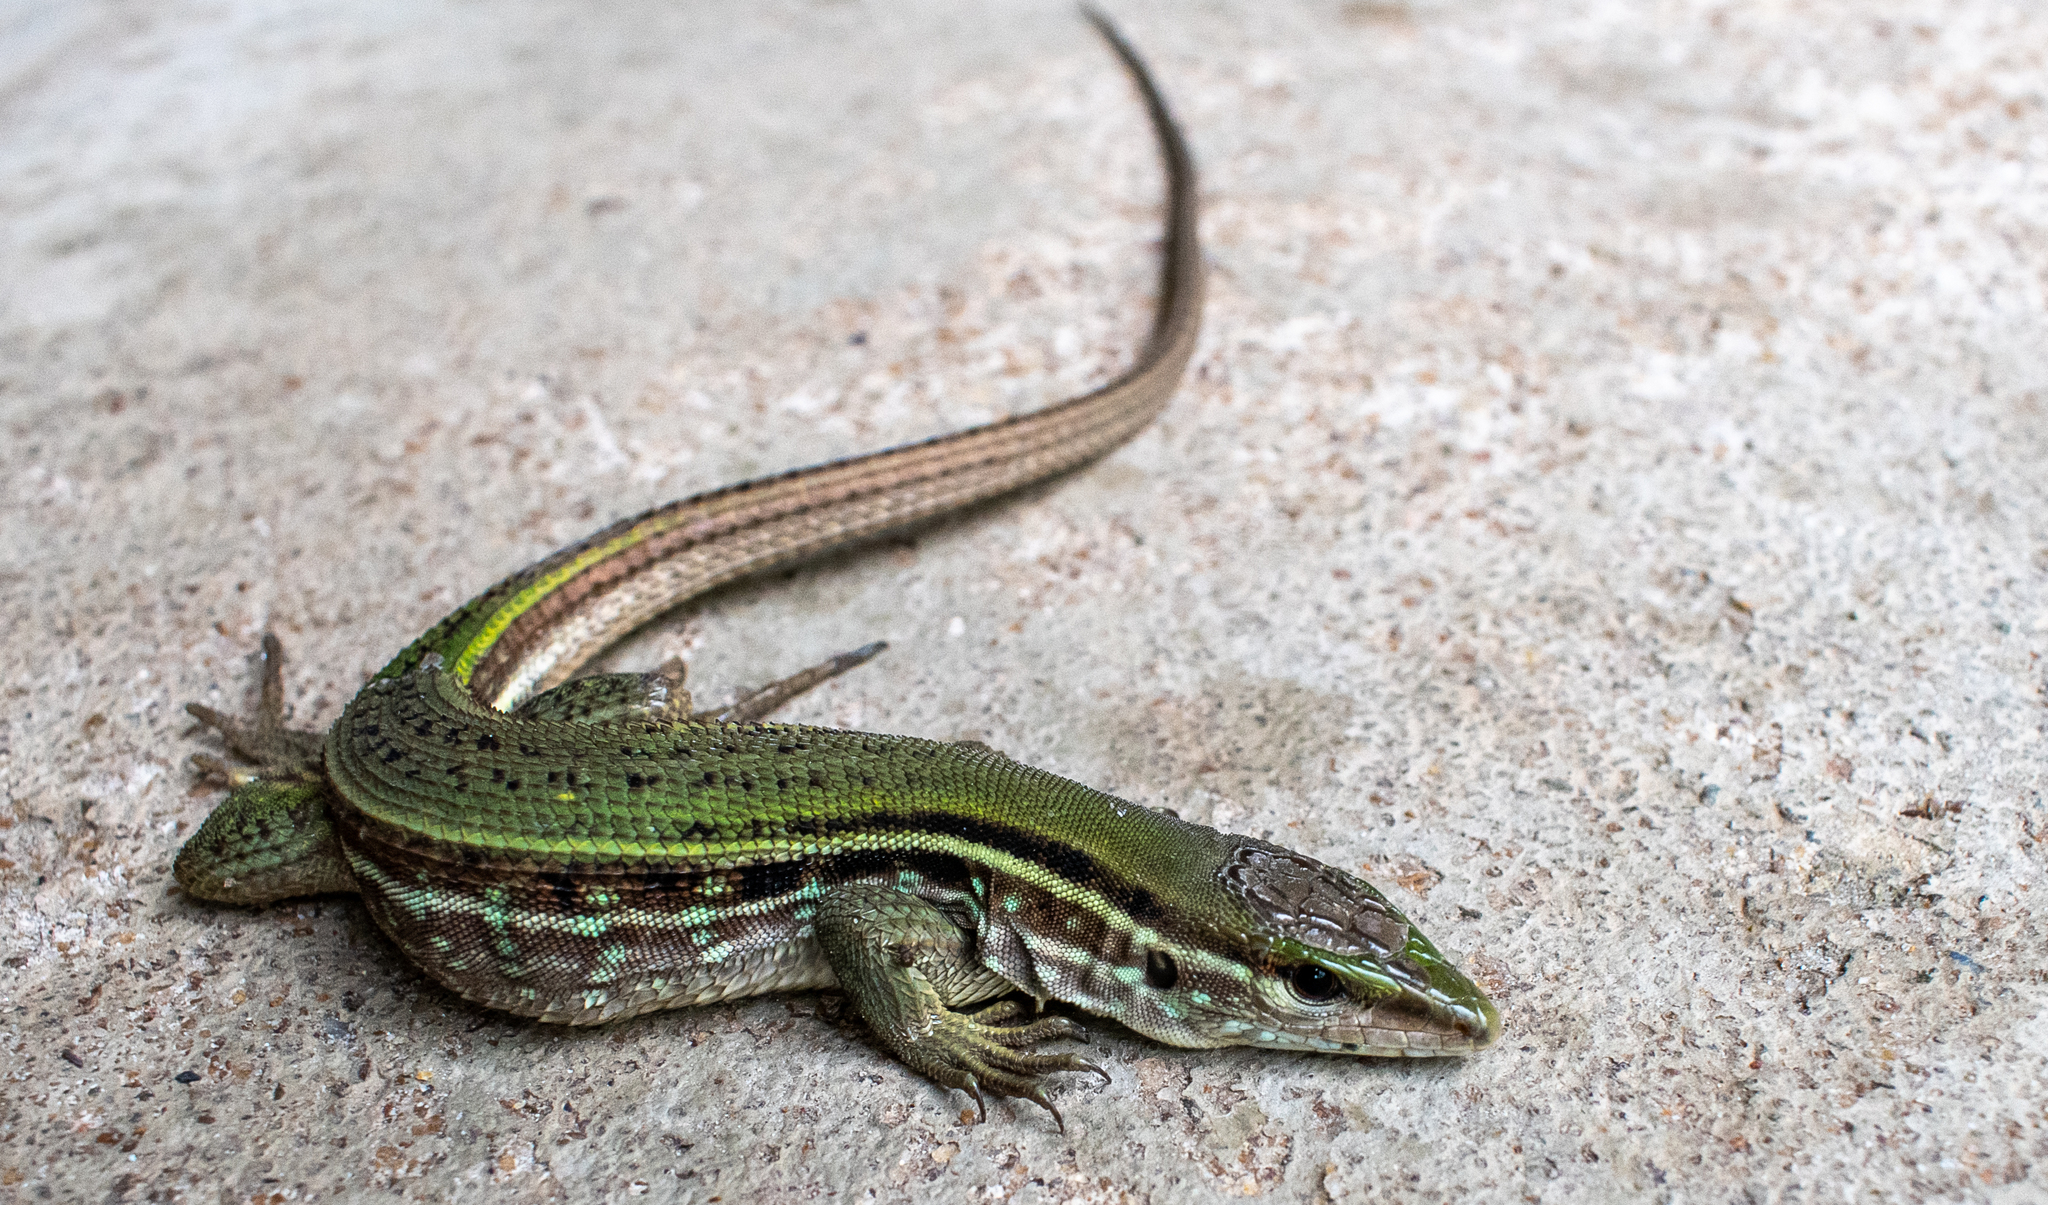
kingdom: Animalia
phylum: Chordata
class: Squamata
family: Teiidae
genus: Kentropyx
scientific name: Kentropyx striata
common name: Striped whiptail
